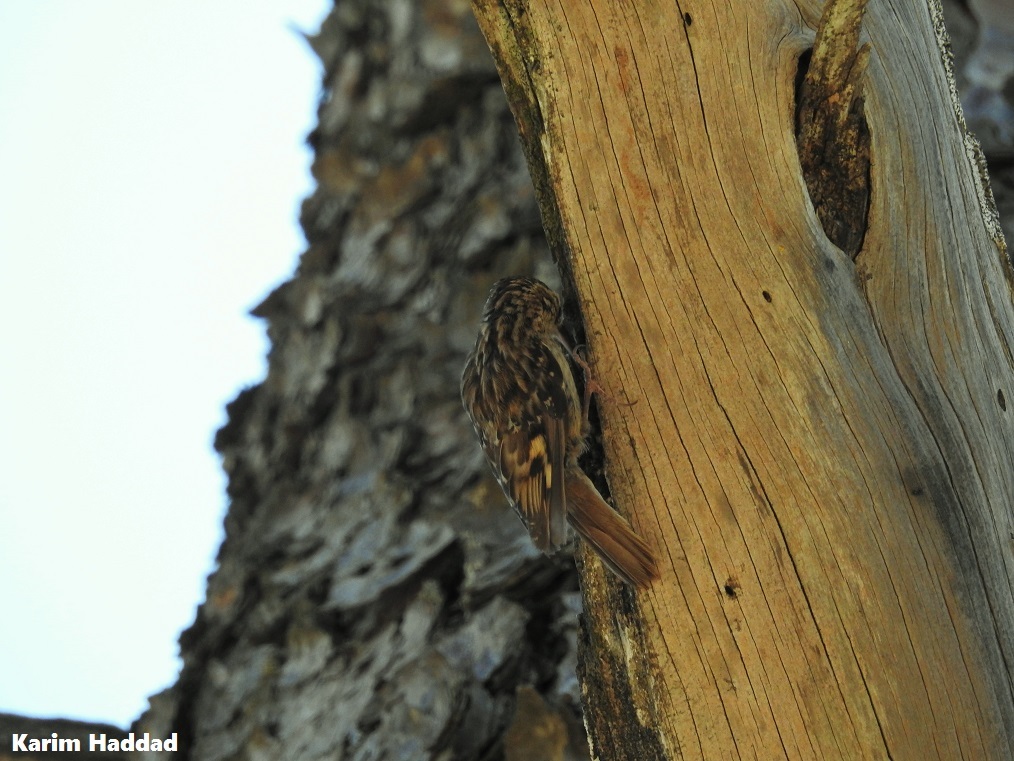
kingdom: Animalia
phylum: Chordata
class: Aves
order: Passeriformes
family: Certhiidae
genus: Certhia
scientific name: Certhia brachydactyla
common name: Short-toed treecreeper
